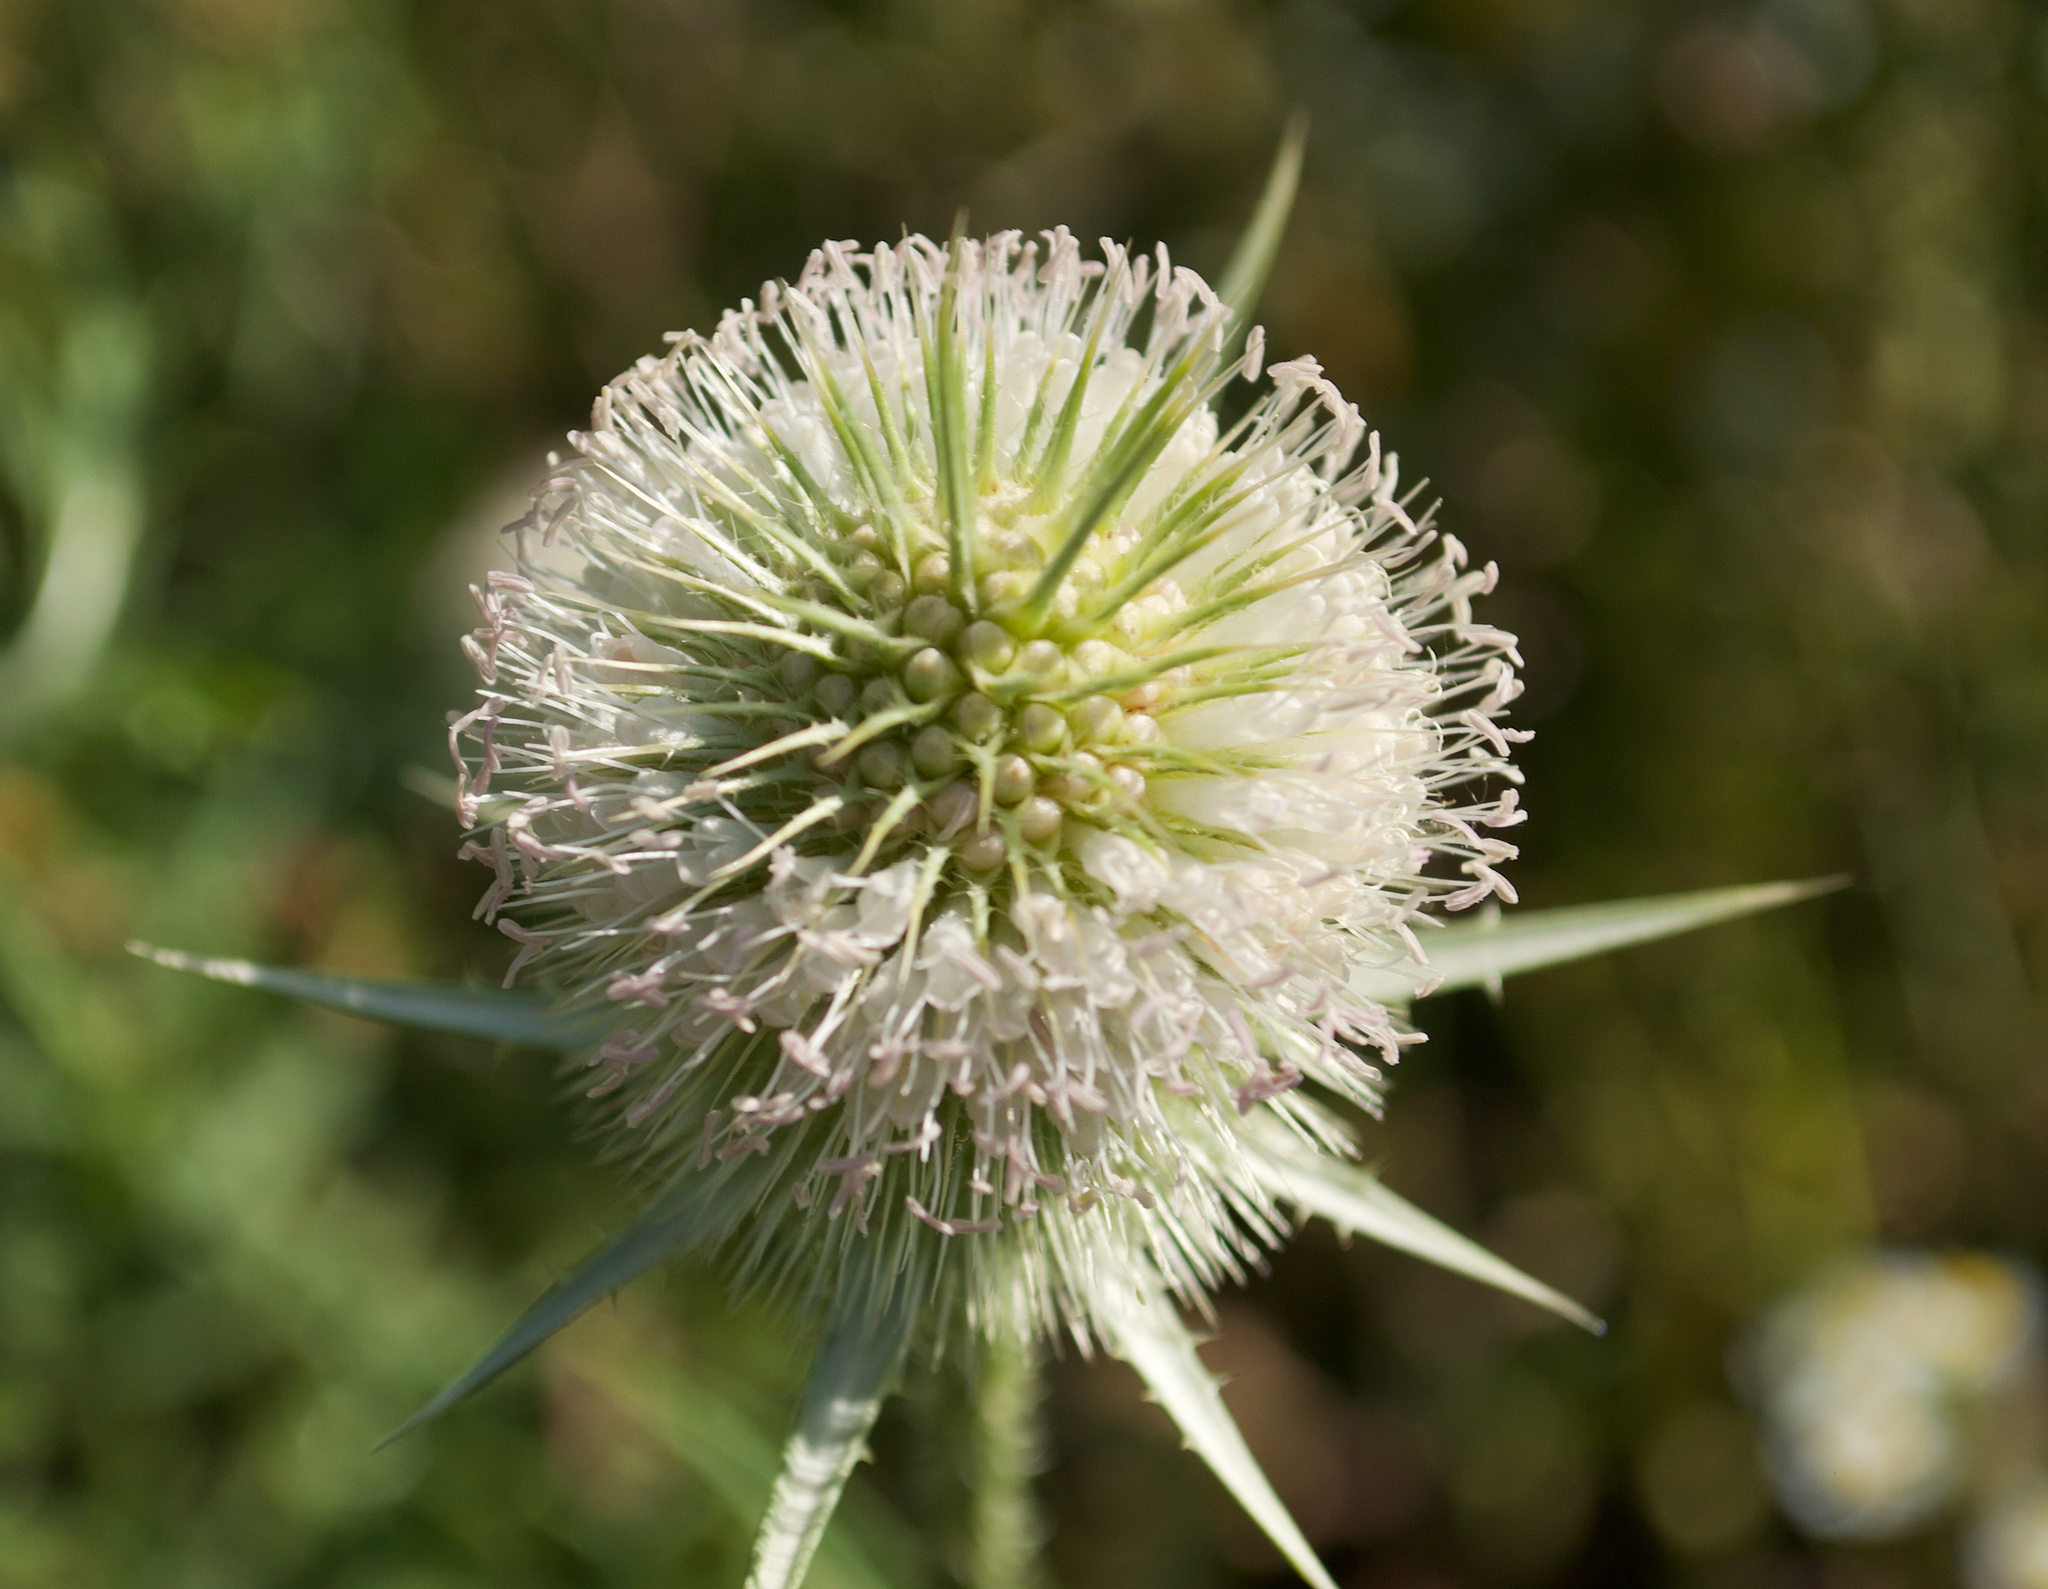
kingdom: Plantae
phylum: Tracheophyta
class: Magnoliopsida
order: Dipsacales
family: Caprifoliaceae
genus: Dipsacus
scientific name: Dipsacus laciniatus
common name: Cut-leaved teasel
